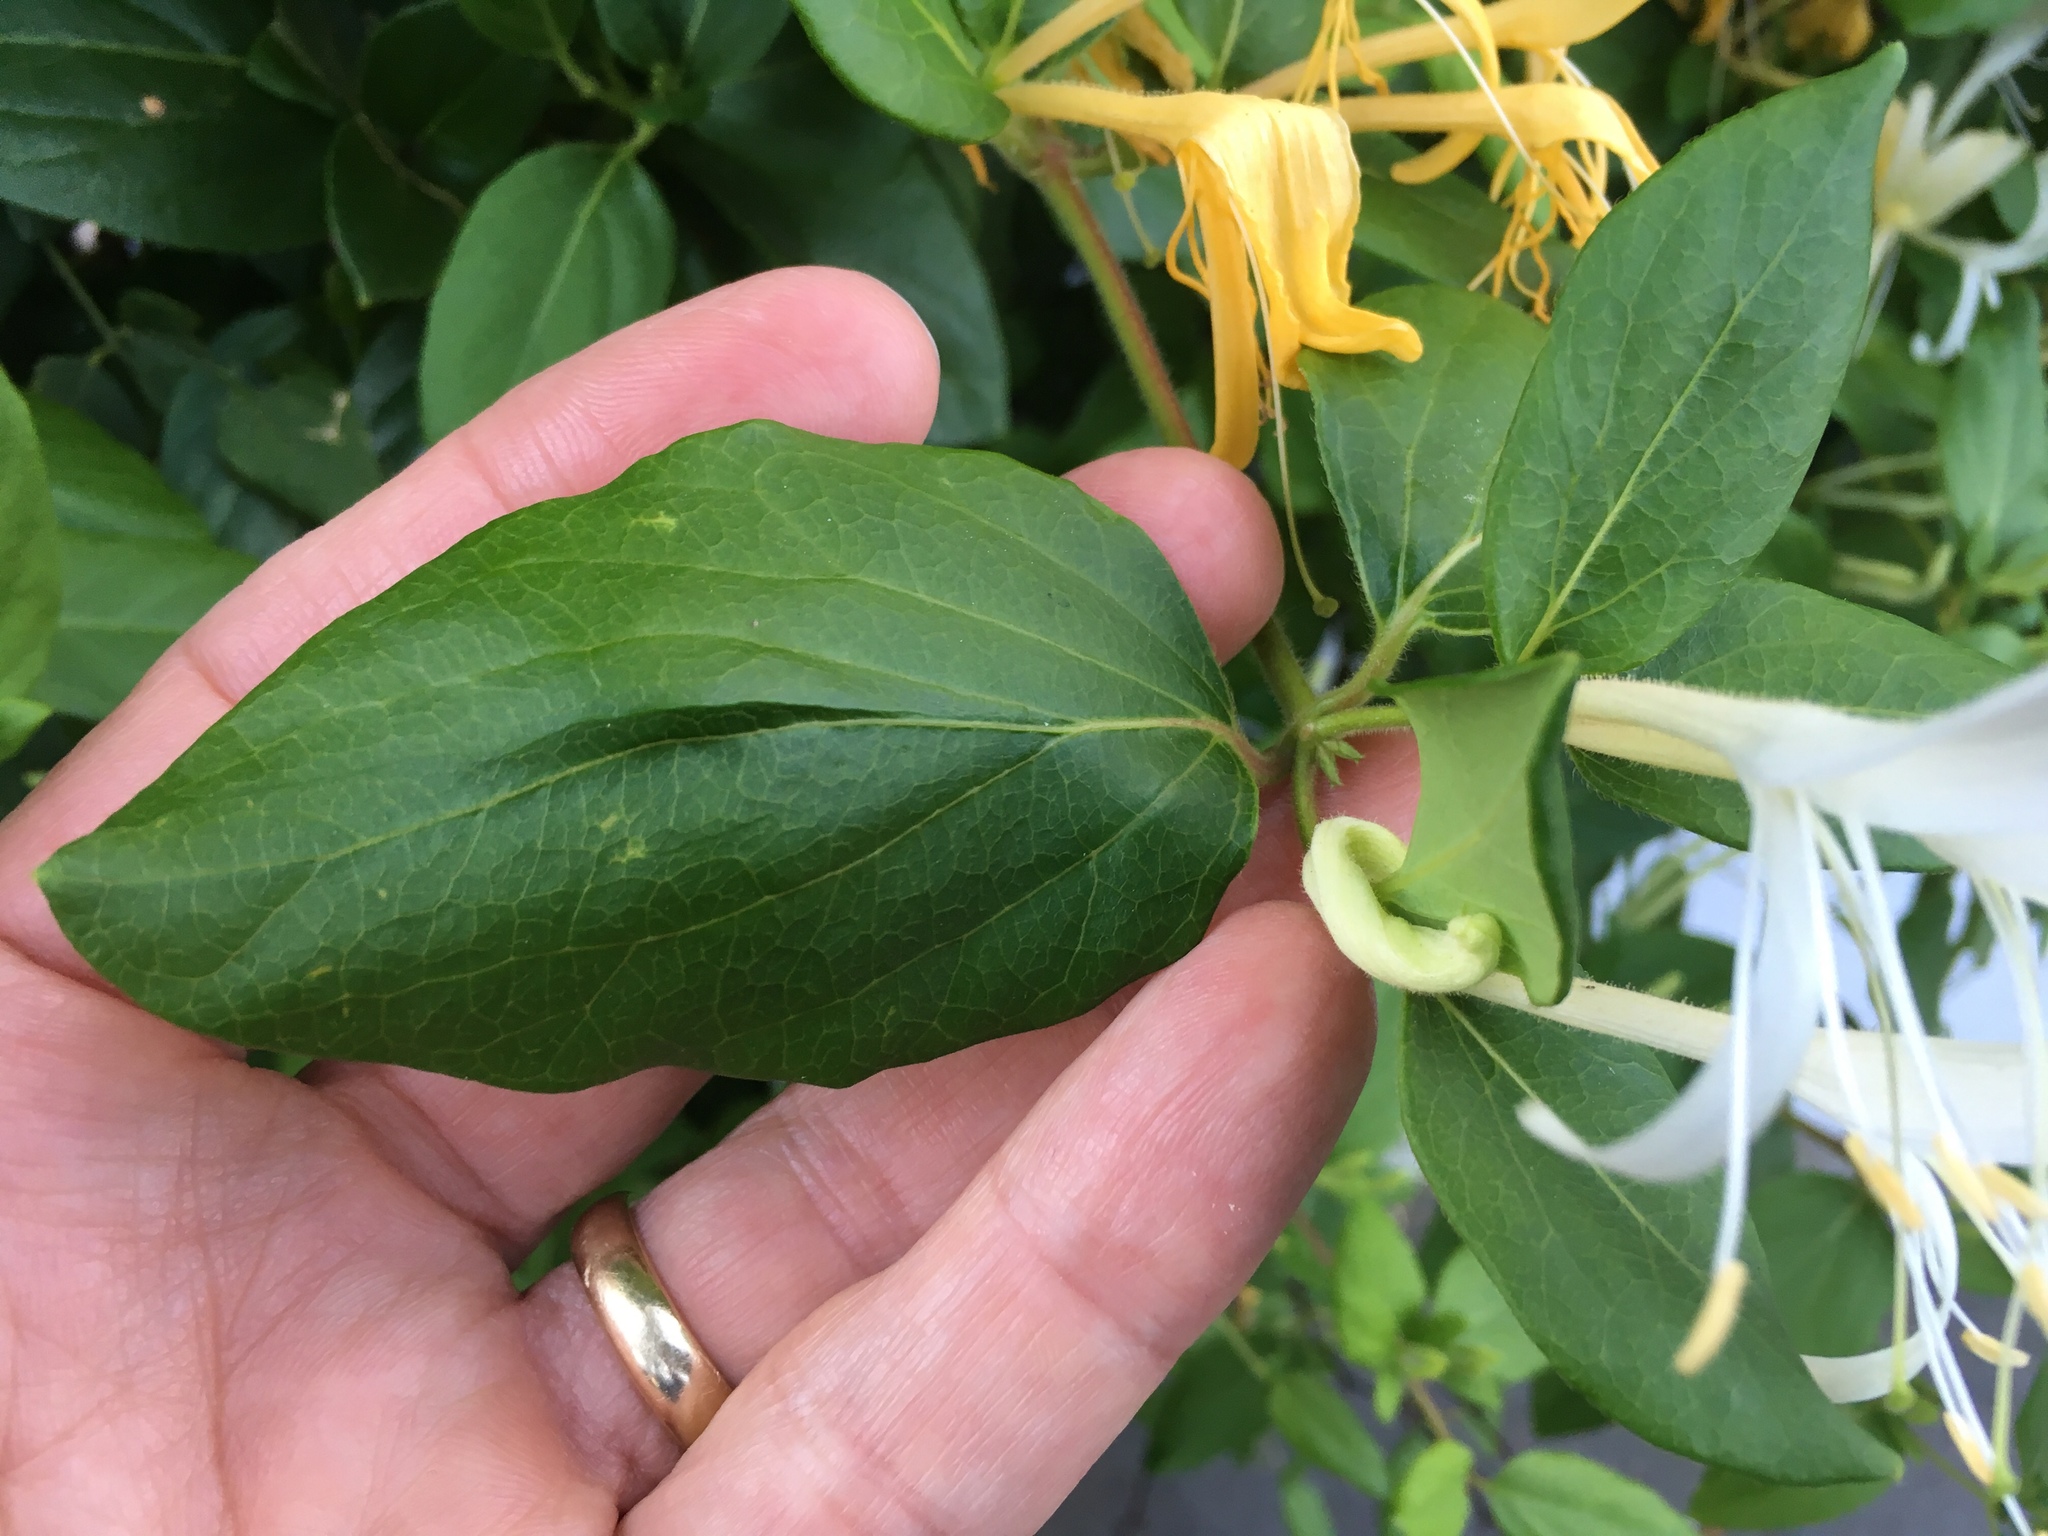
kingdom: Plantae
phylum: Tracheophyta
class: Magnoliopsida
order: Dipsacales
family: Caprifoliaceae
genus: Lonicera
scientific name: Lonicera japonica
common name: Japanese honeysuckle
